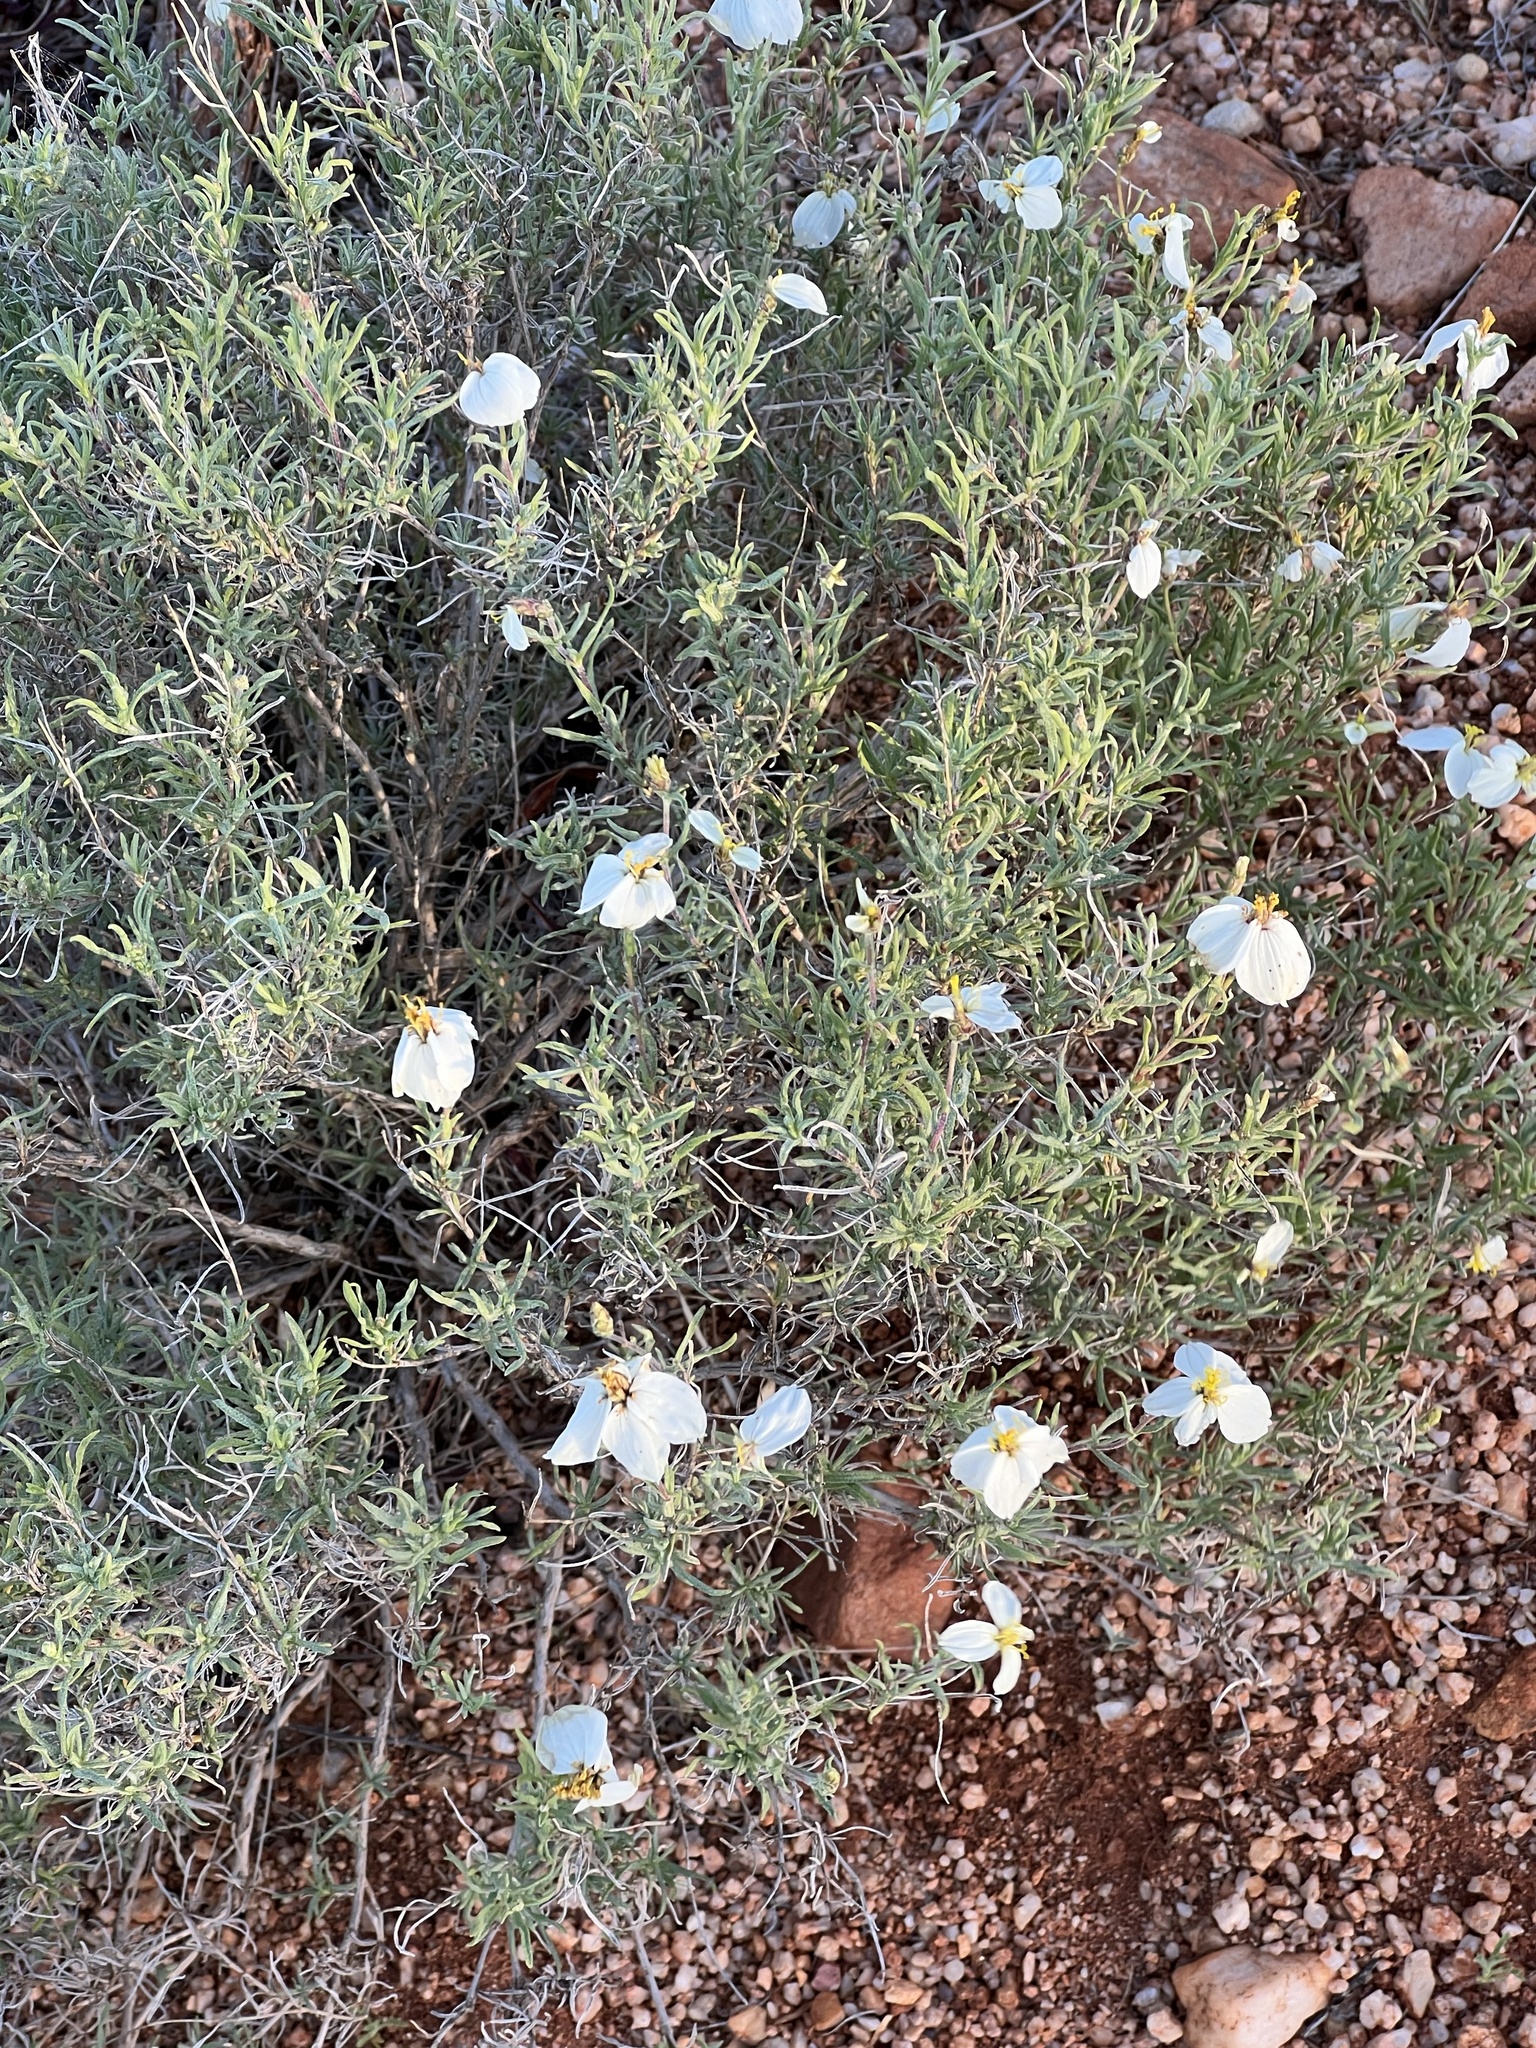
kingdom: Plantae
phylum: Tracheophyta
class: Magnoliopsida
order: Asterales
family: Asteraceae
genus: Zinnia
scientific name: Zinnia acerosa
